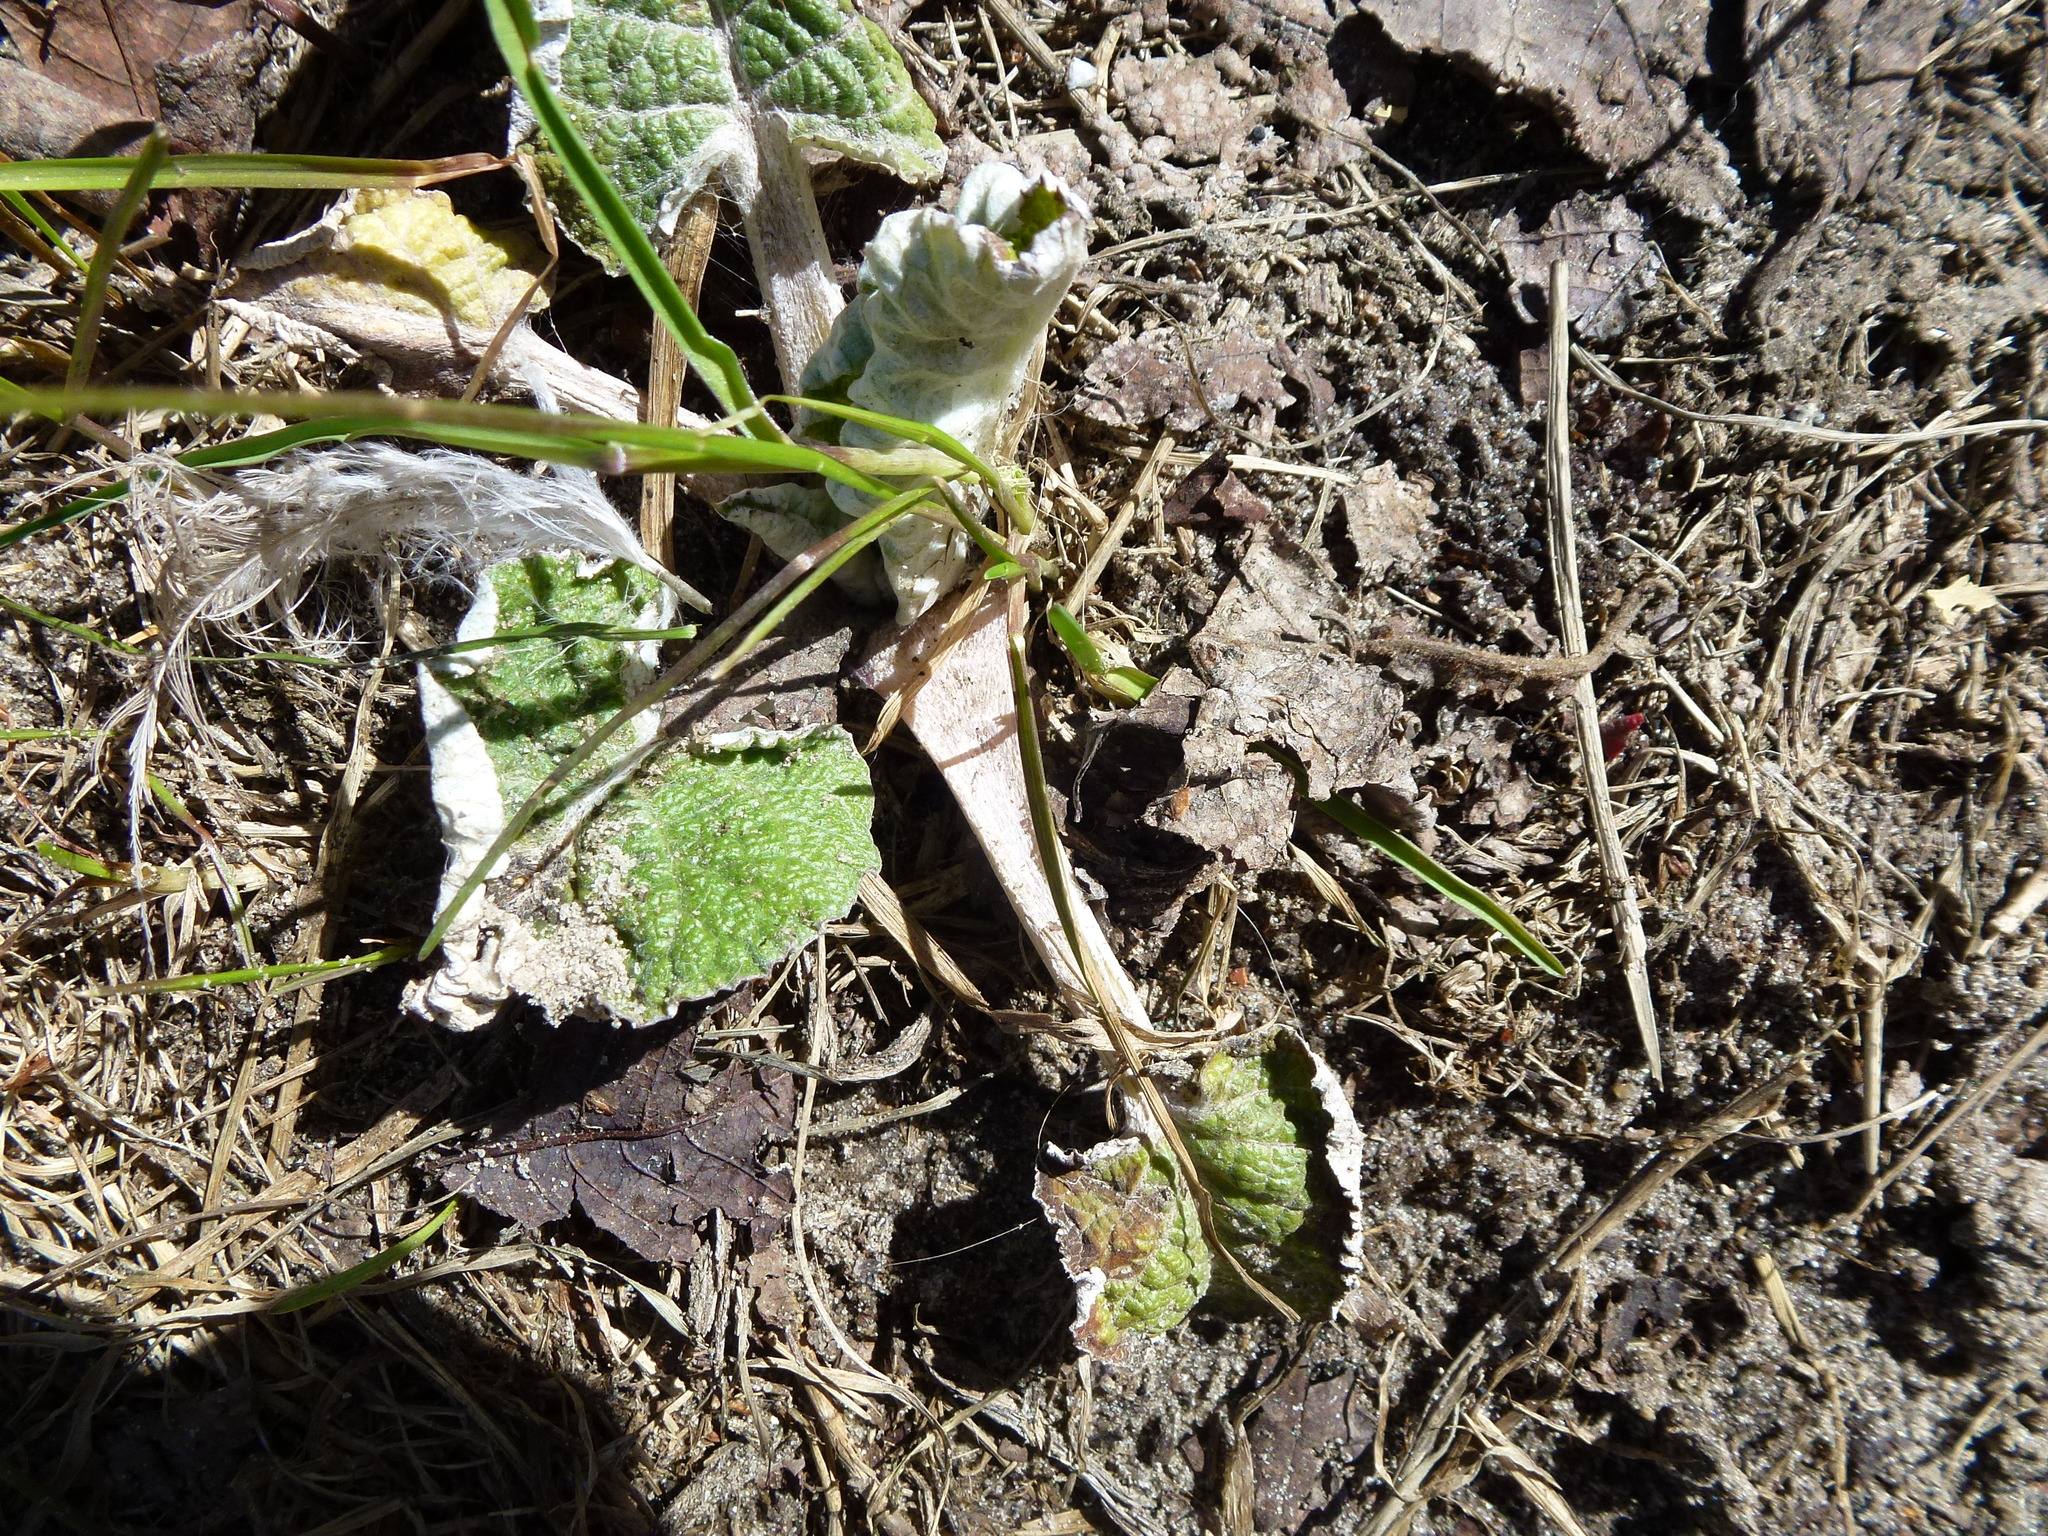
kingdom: Plantae
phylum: Tracheophyta
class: Magnoliopsida
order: Asterales
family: Asteraceae
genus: Arctium
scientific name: Arctium tomentosum
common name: Woolly burdock
